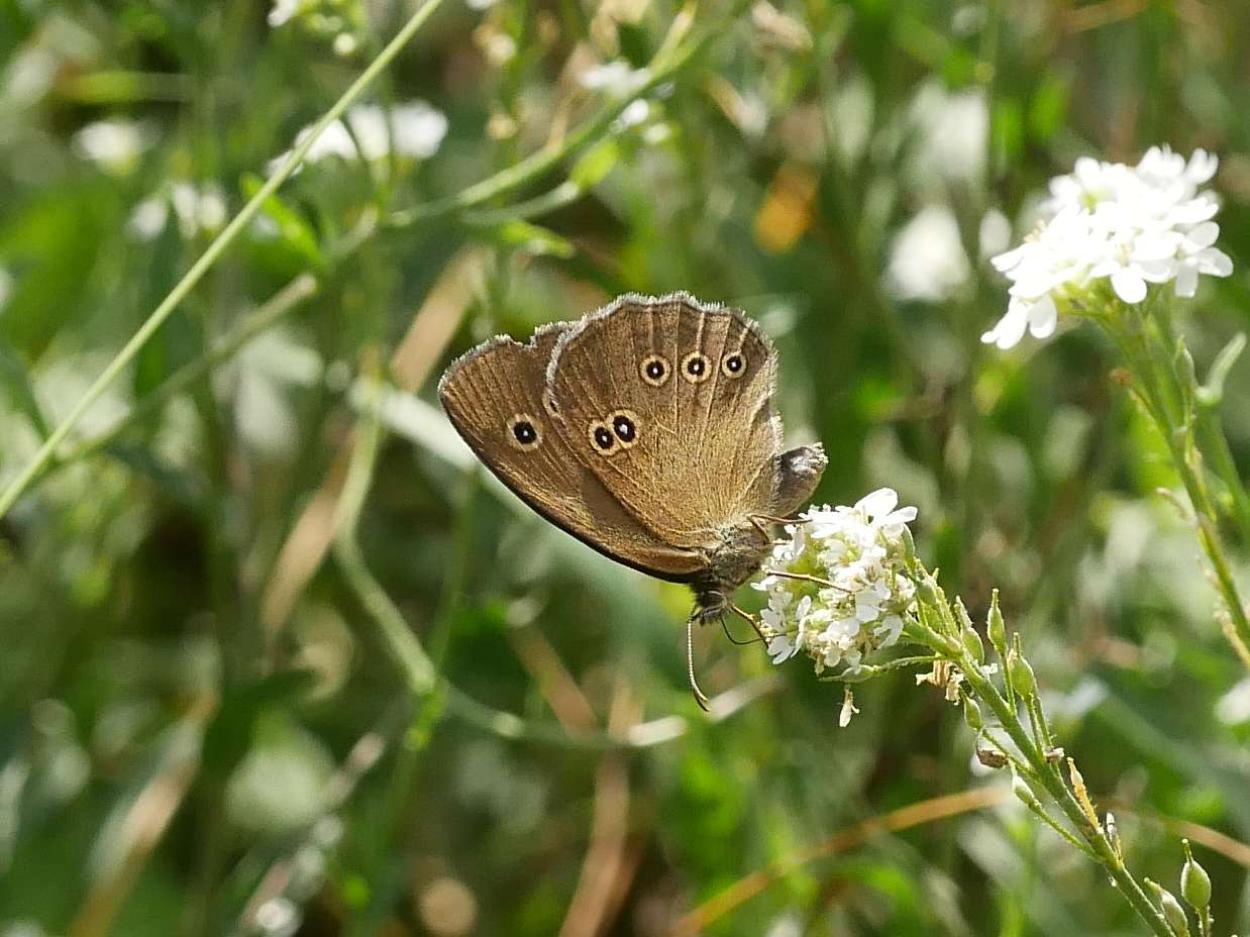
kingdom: Animalia
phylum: Arthropoda
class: Insecta
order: Lepidoptera
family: Nymphalidae
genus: Aphantopus
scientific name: Aphantopus hyperantus
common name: Ringlet
